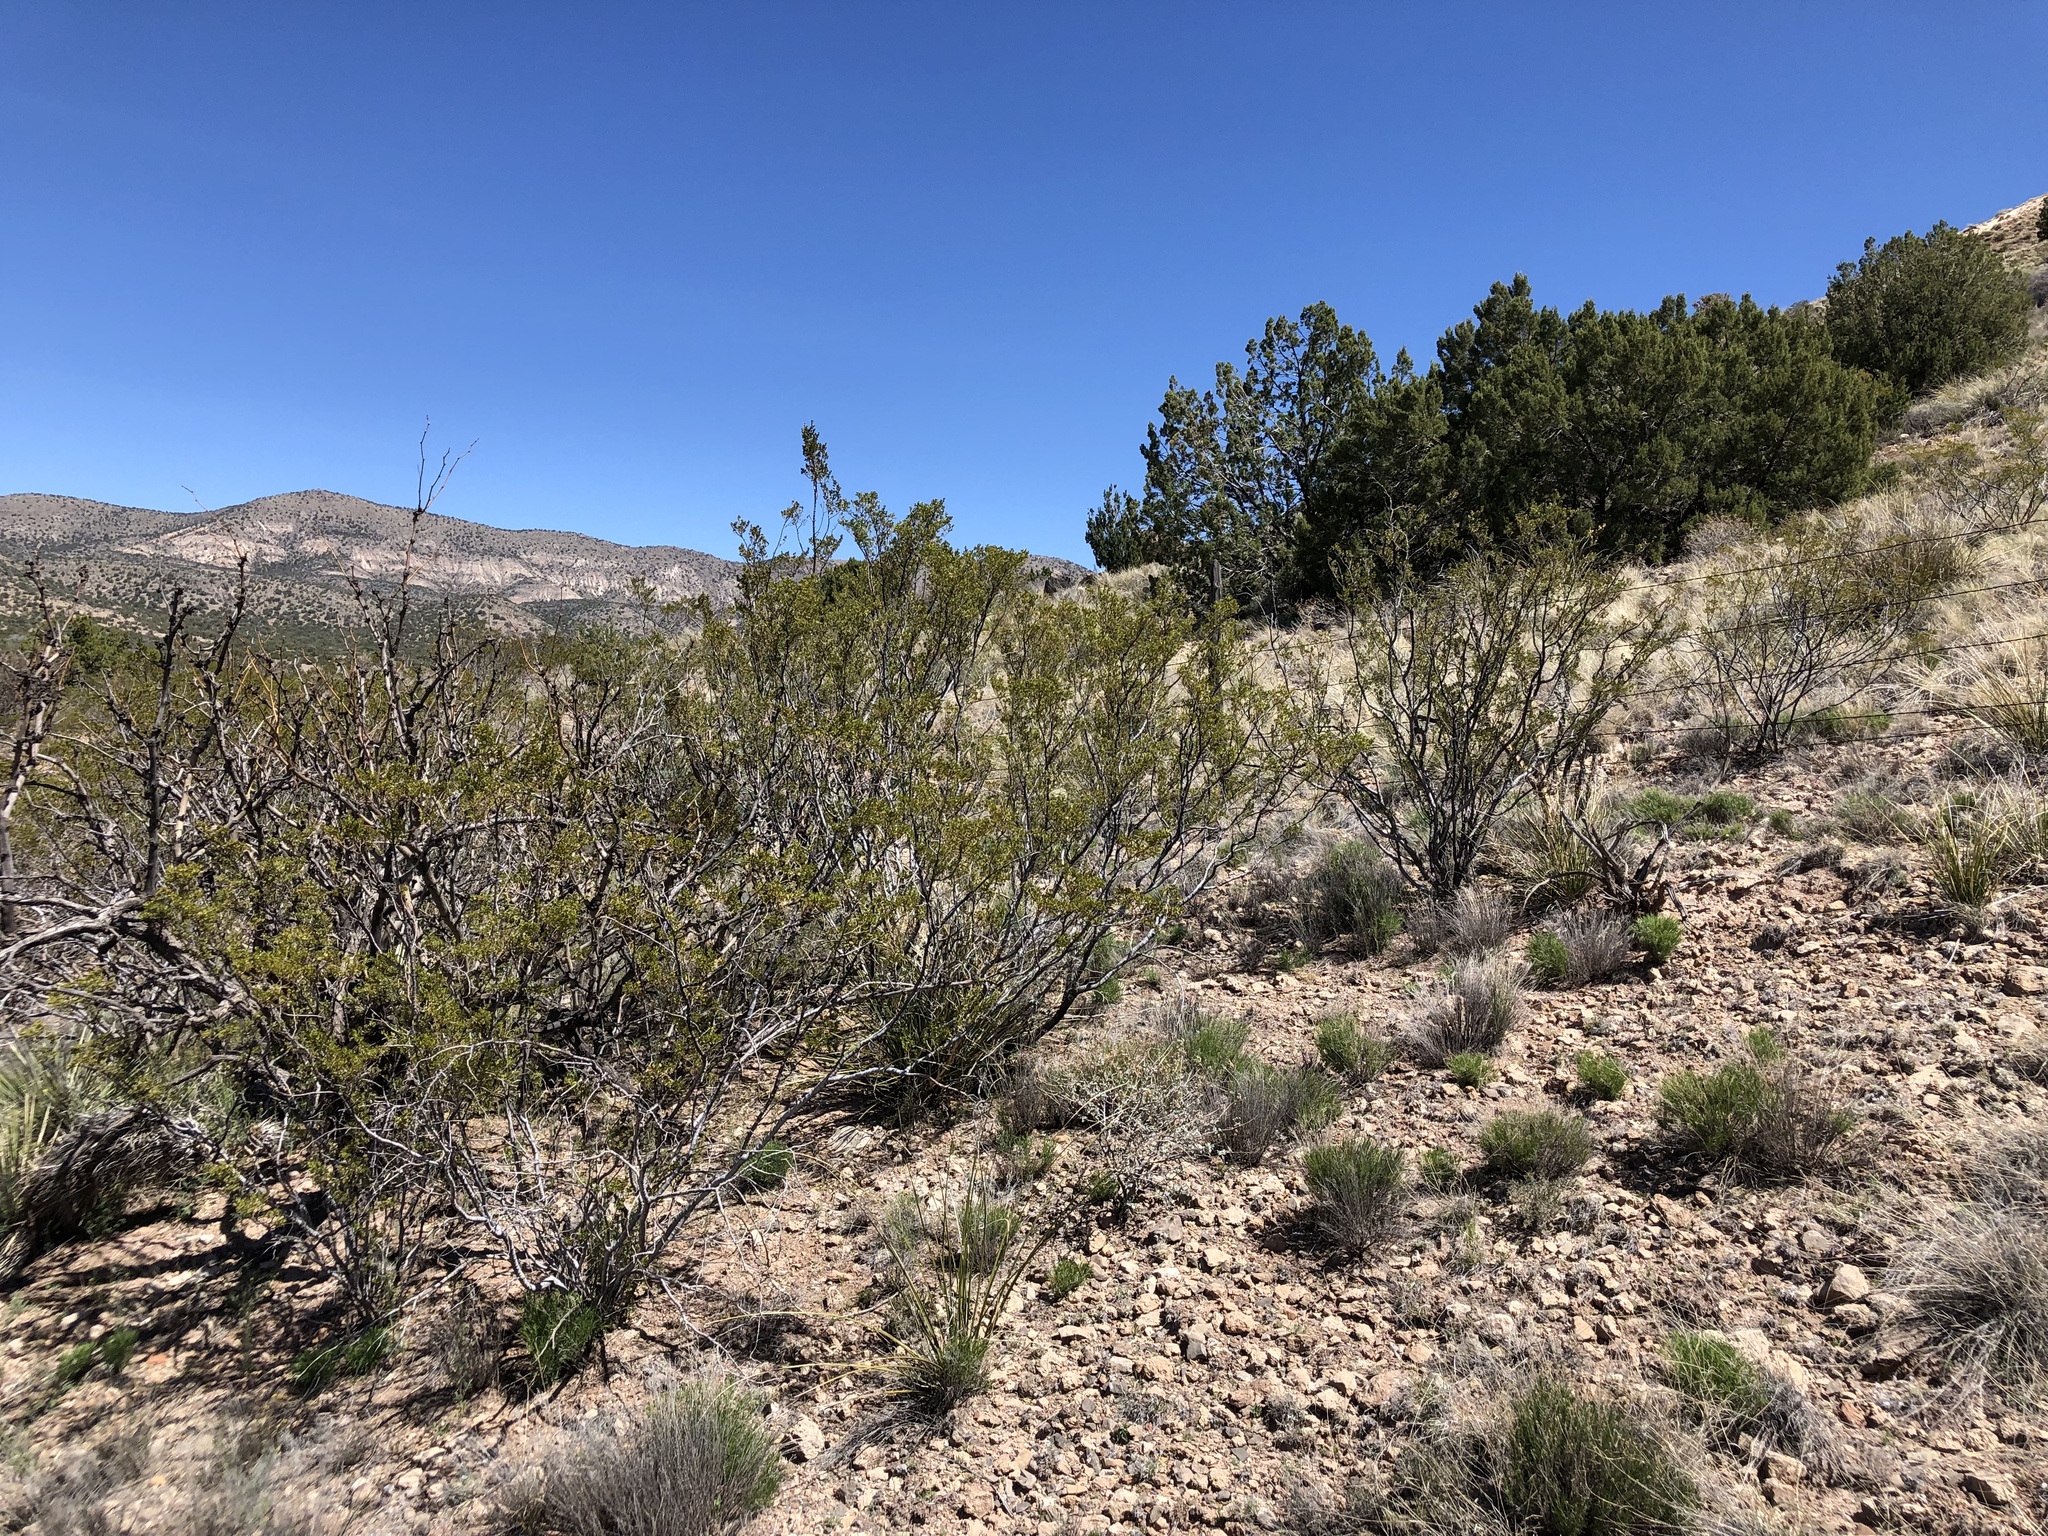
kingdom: Plantae
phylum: Tracheophyta
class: Magnoliopsida
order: Zygophyllales
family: Zygophyllaceae
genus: Larrea
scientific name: Larrea tridentata
